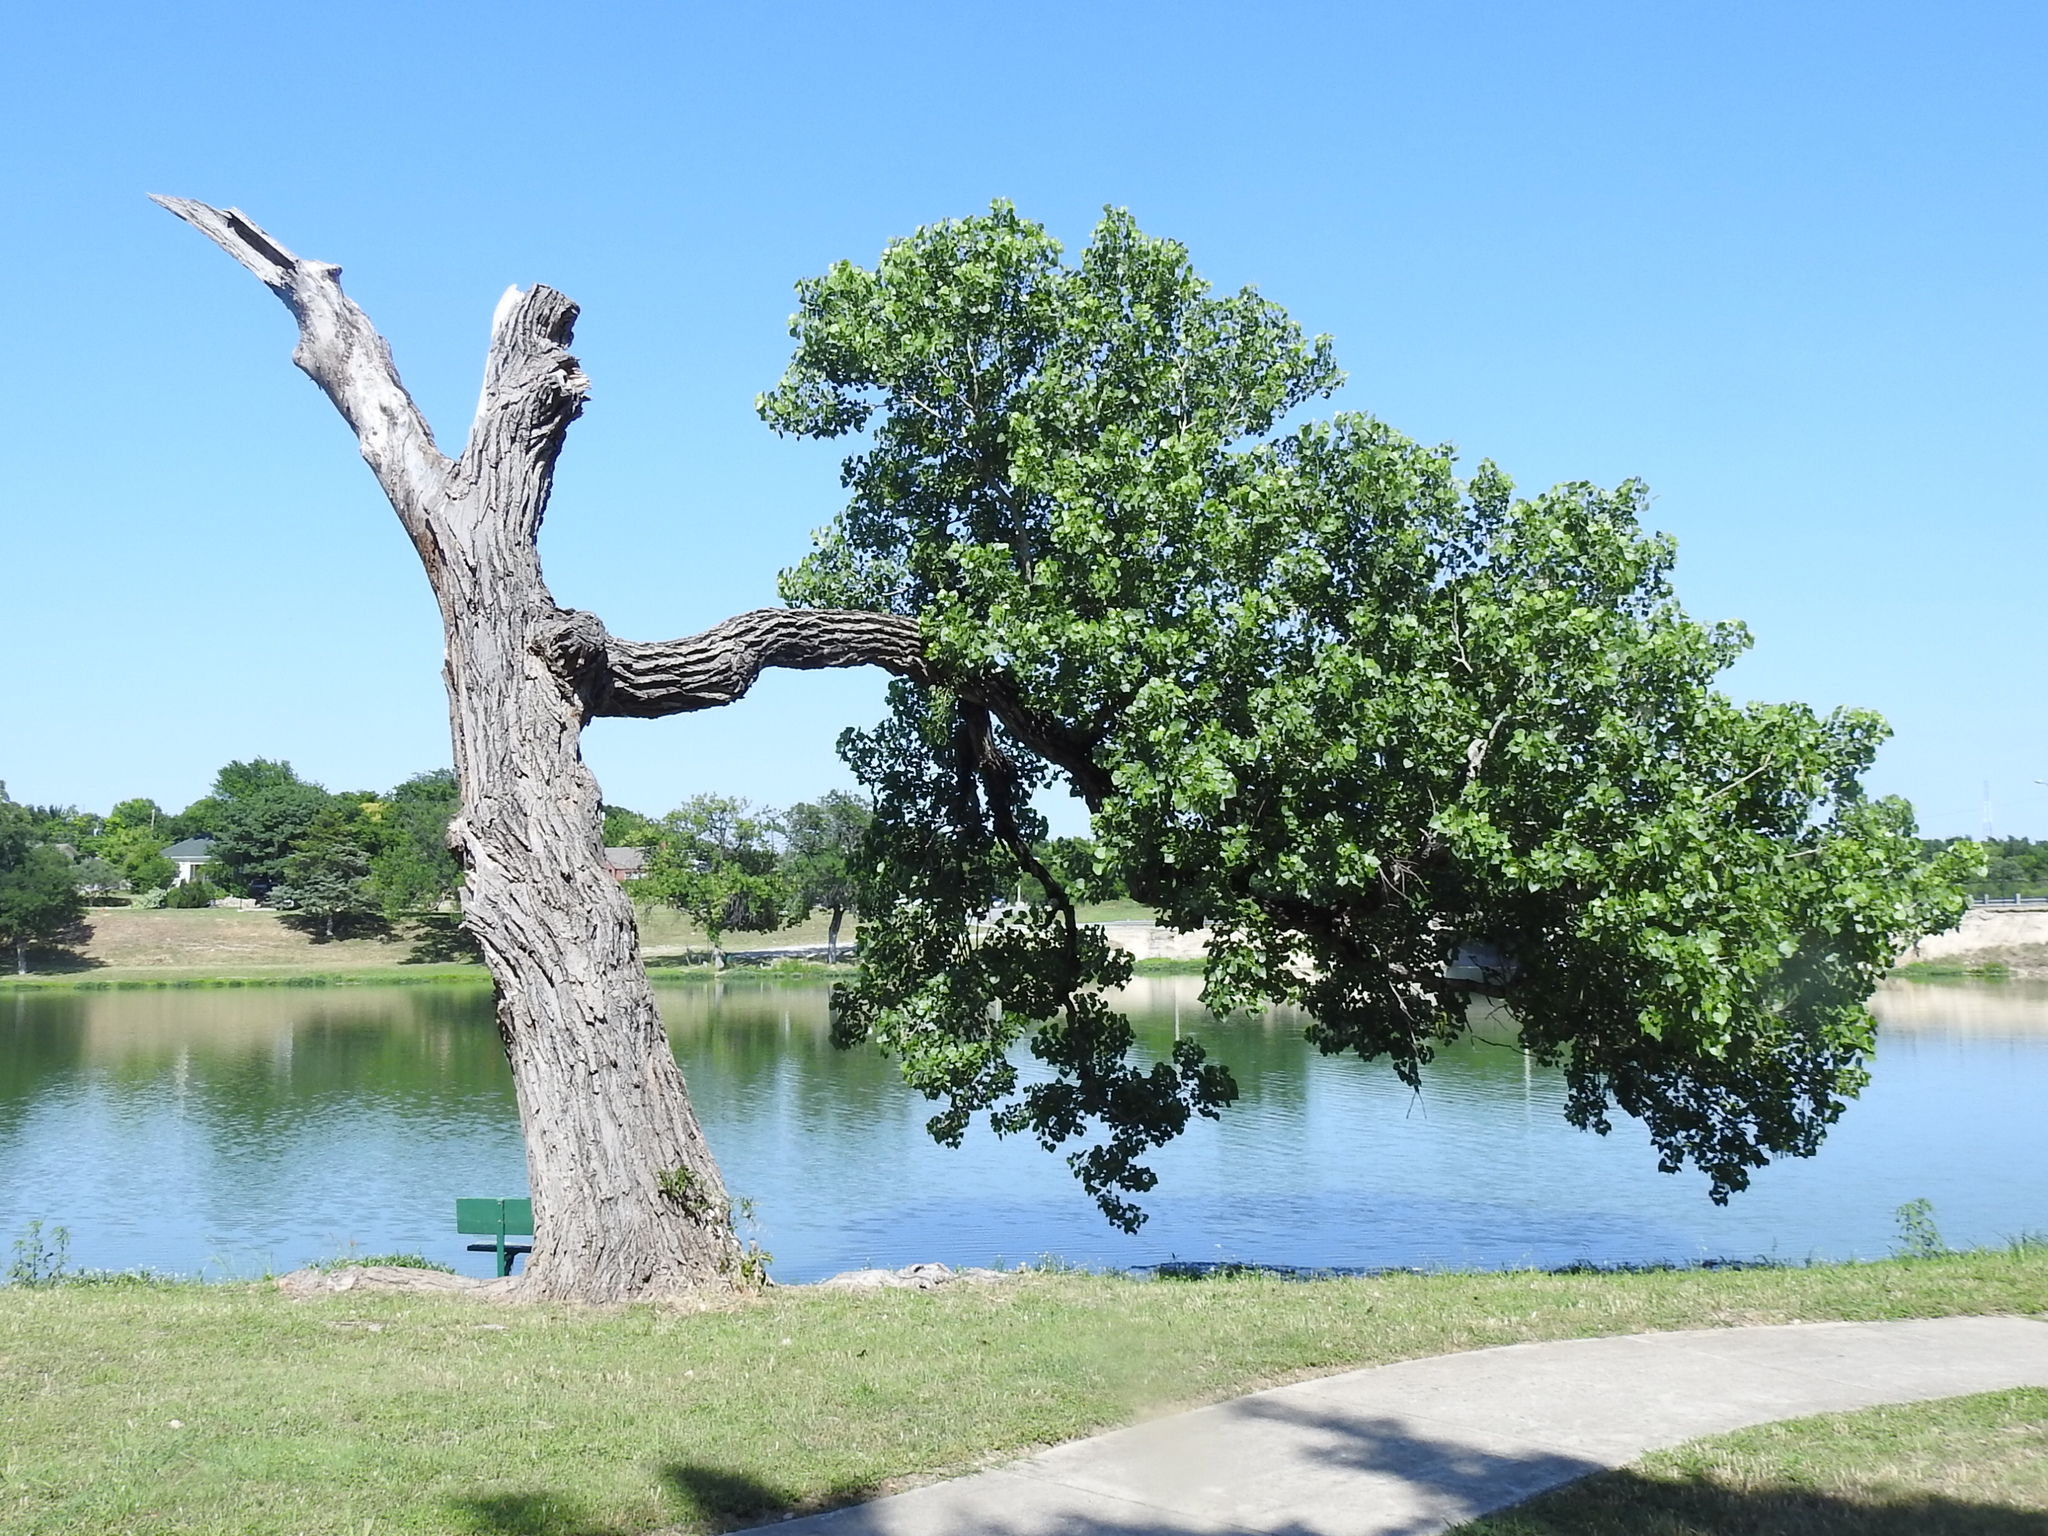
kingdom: Plantae
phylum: Tracheophyta
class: Magnoliopsida
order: Malpighiales
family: Salicaceae
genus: Populus
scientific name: Populus deltoides
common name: Eastern cottonwood
